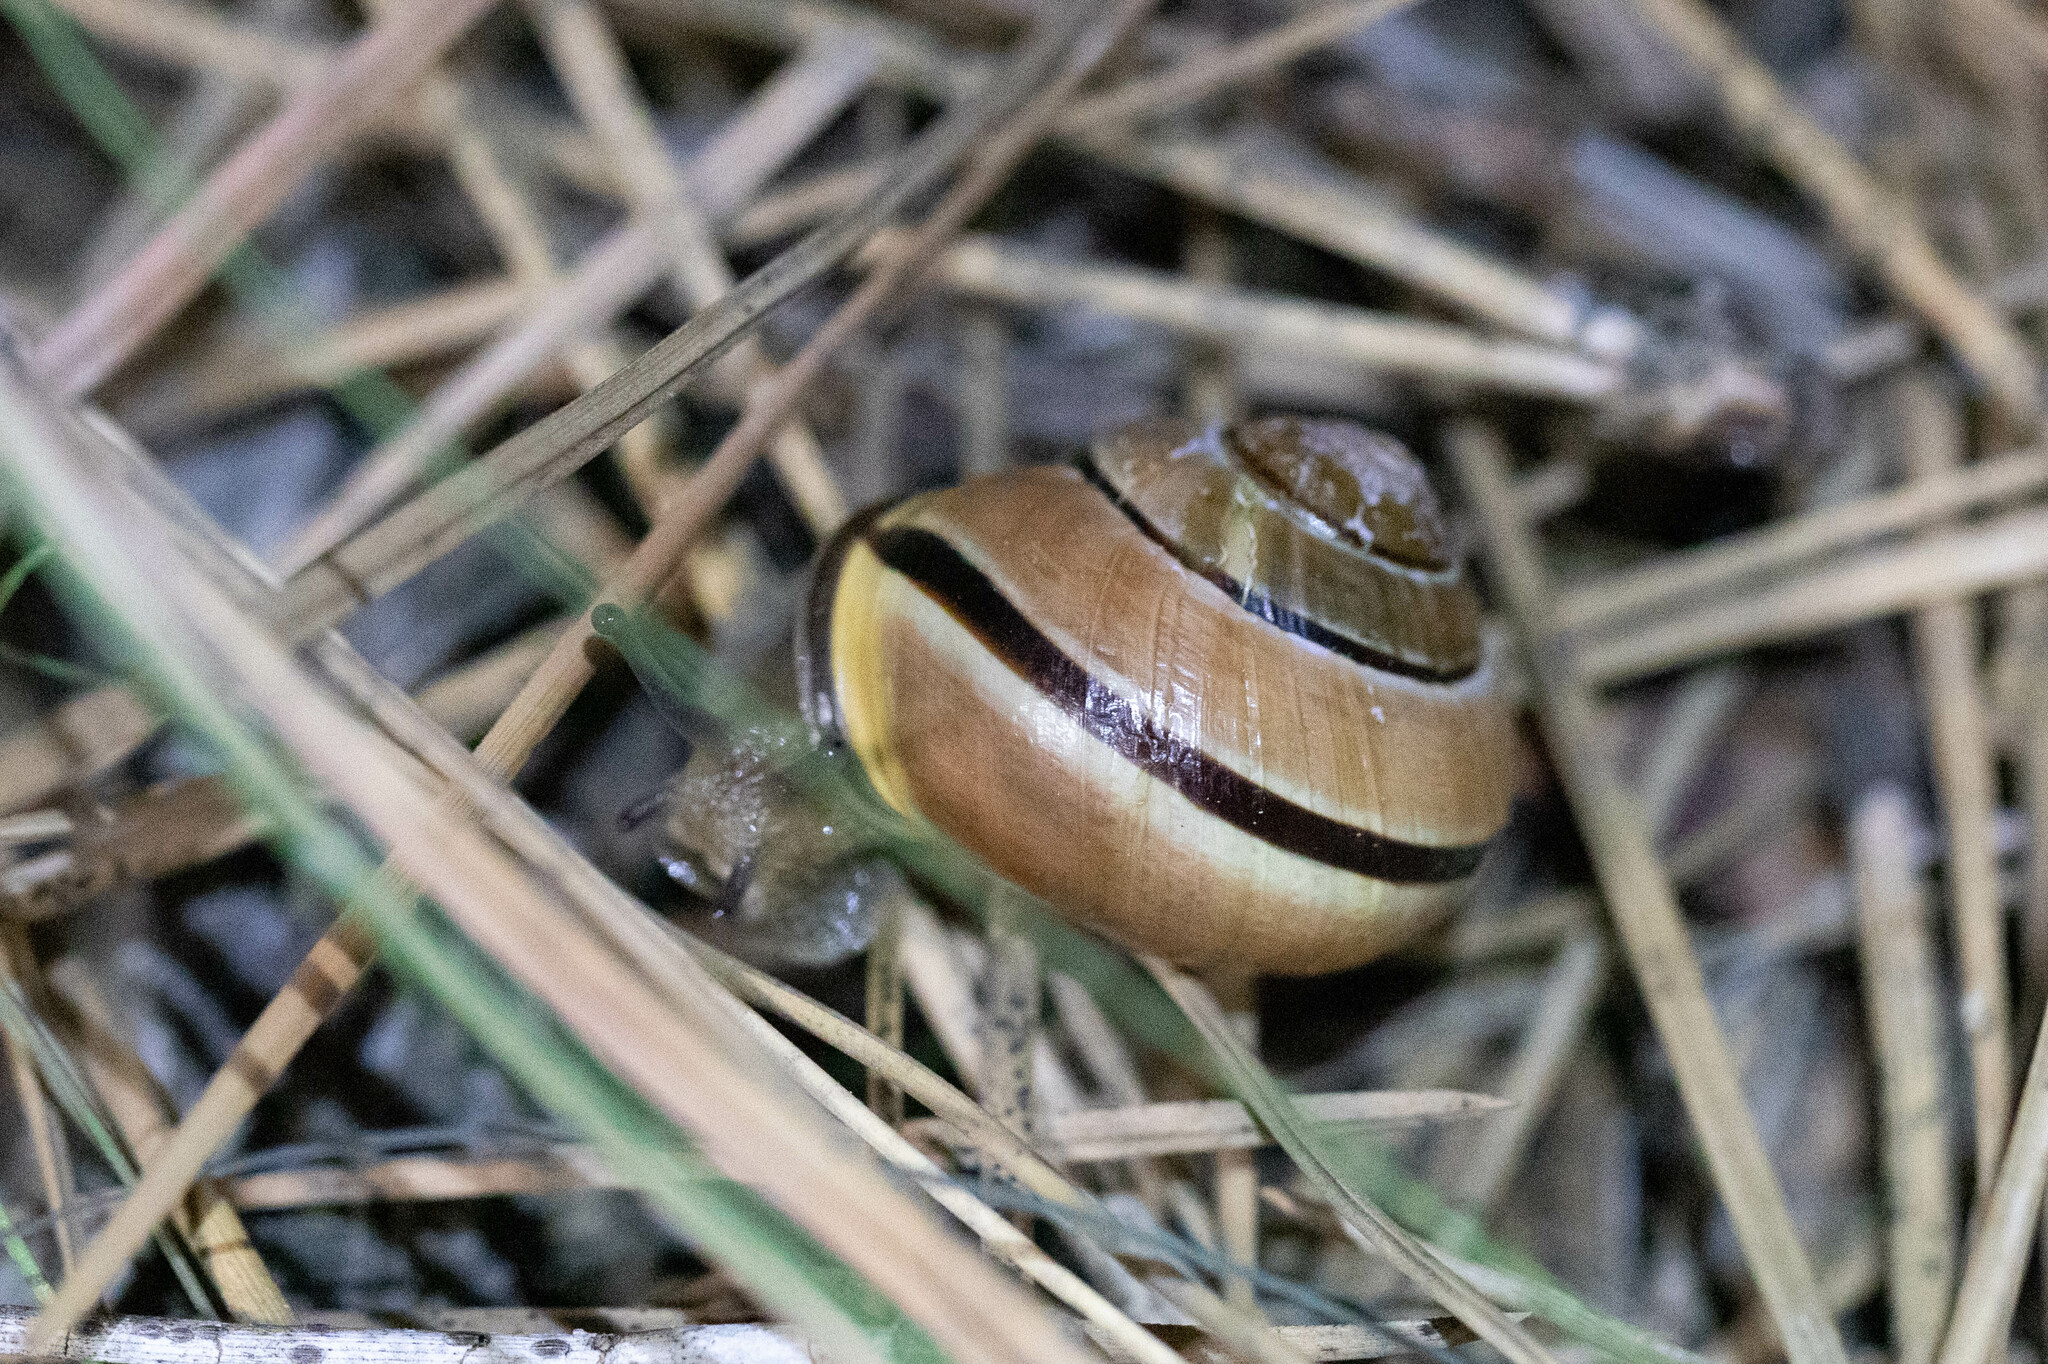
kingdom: Animalia
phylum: Mollusca
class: Gastropoda
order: Stylommatophora
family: Helicidae
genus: Cepaea
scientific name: Cepaea nemoralis
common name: Grovesnail
